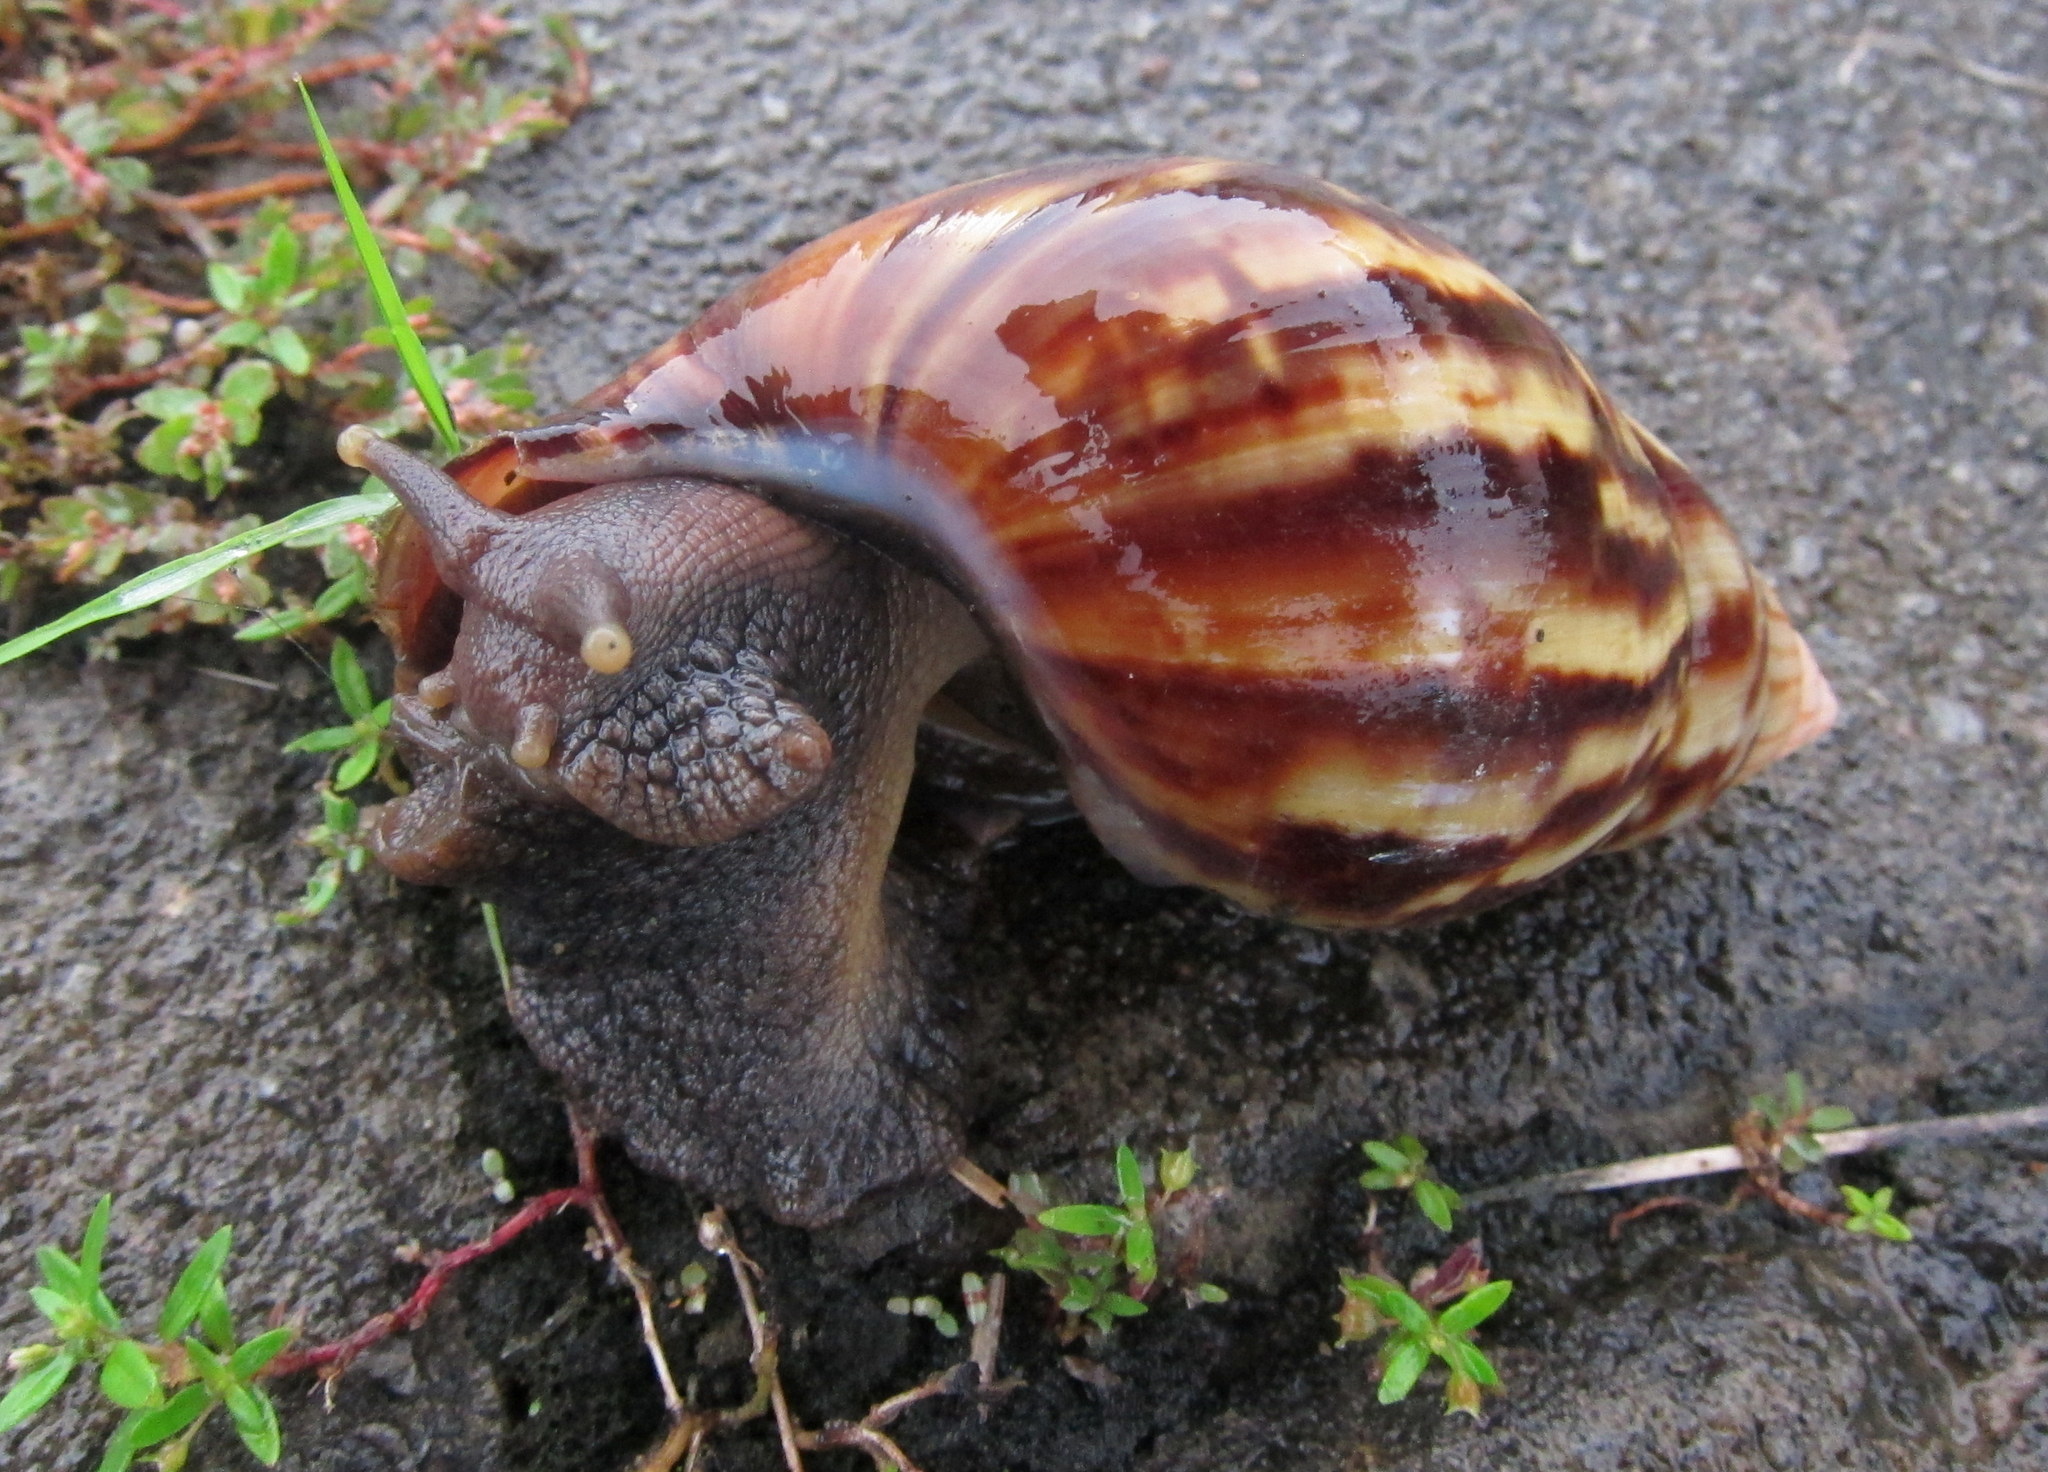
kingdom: Animalia
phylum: Mollusca
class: Gastropoda
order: Stylommatophora
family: Achatinidae
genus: Lissachatina
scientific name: Lissachatina fulica
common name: Giant african snail
